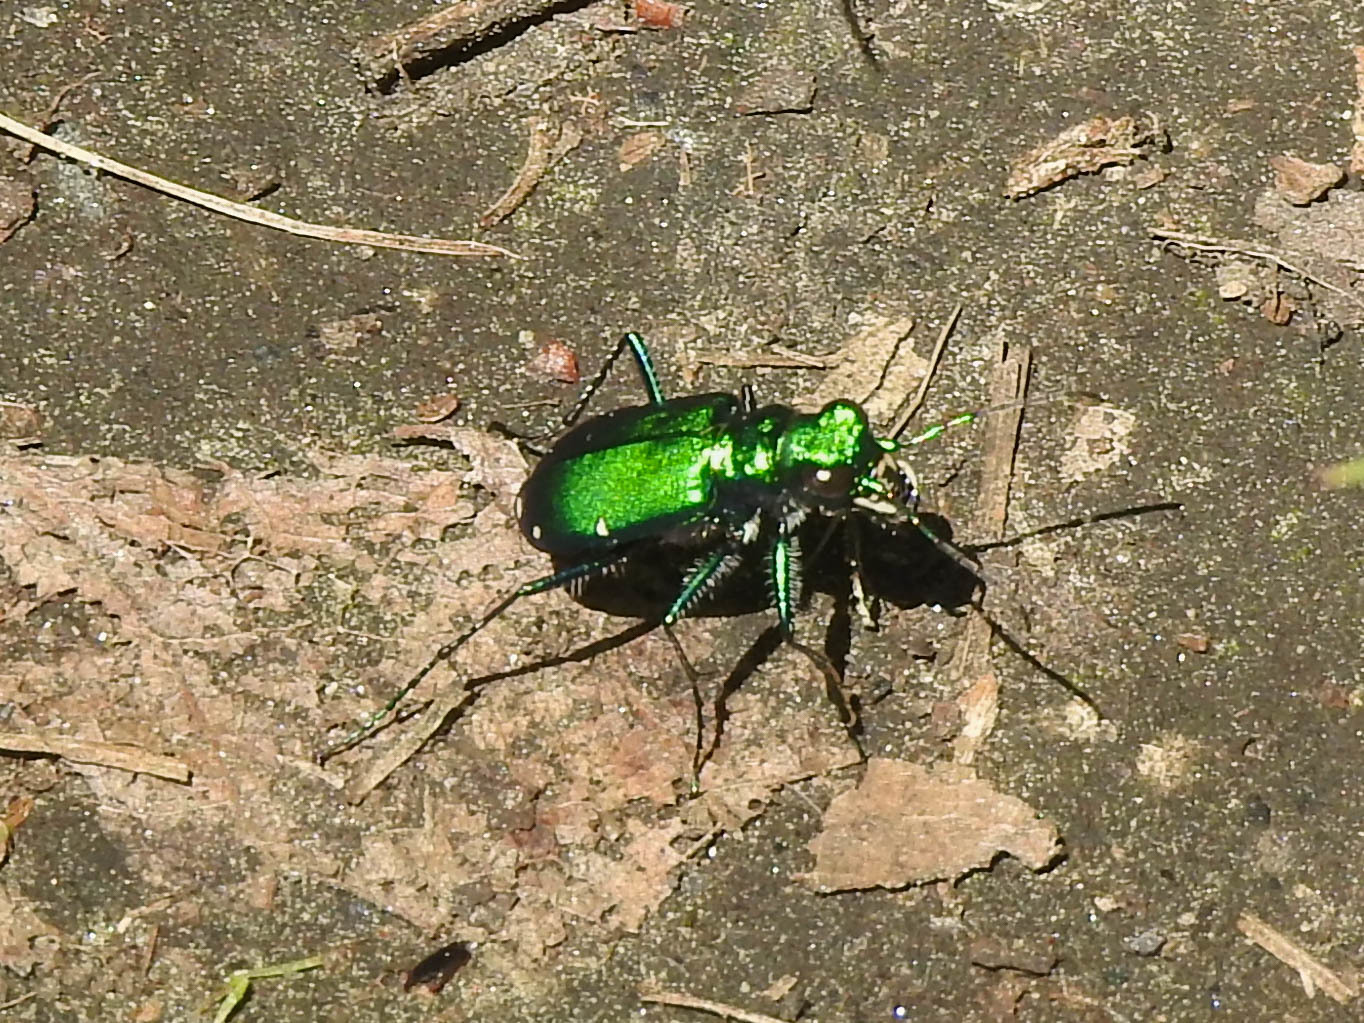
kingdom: Animalia
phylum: Arthropoda
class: Insecta
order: Coleoptera
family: Carabidae
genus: Cicindela
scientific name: Cicindela sexguttata
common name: Six-spotted tiger beetle
